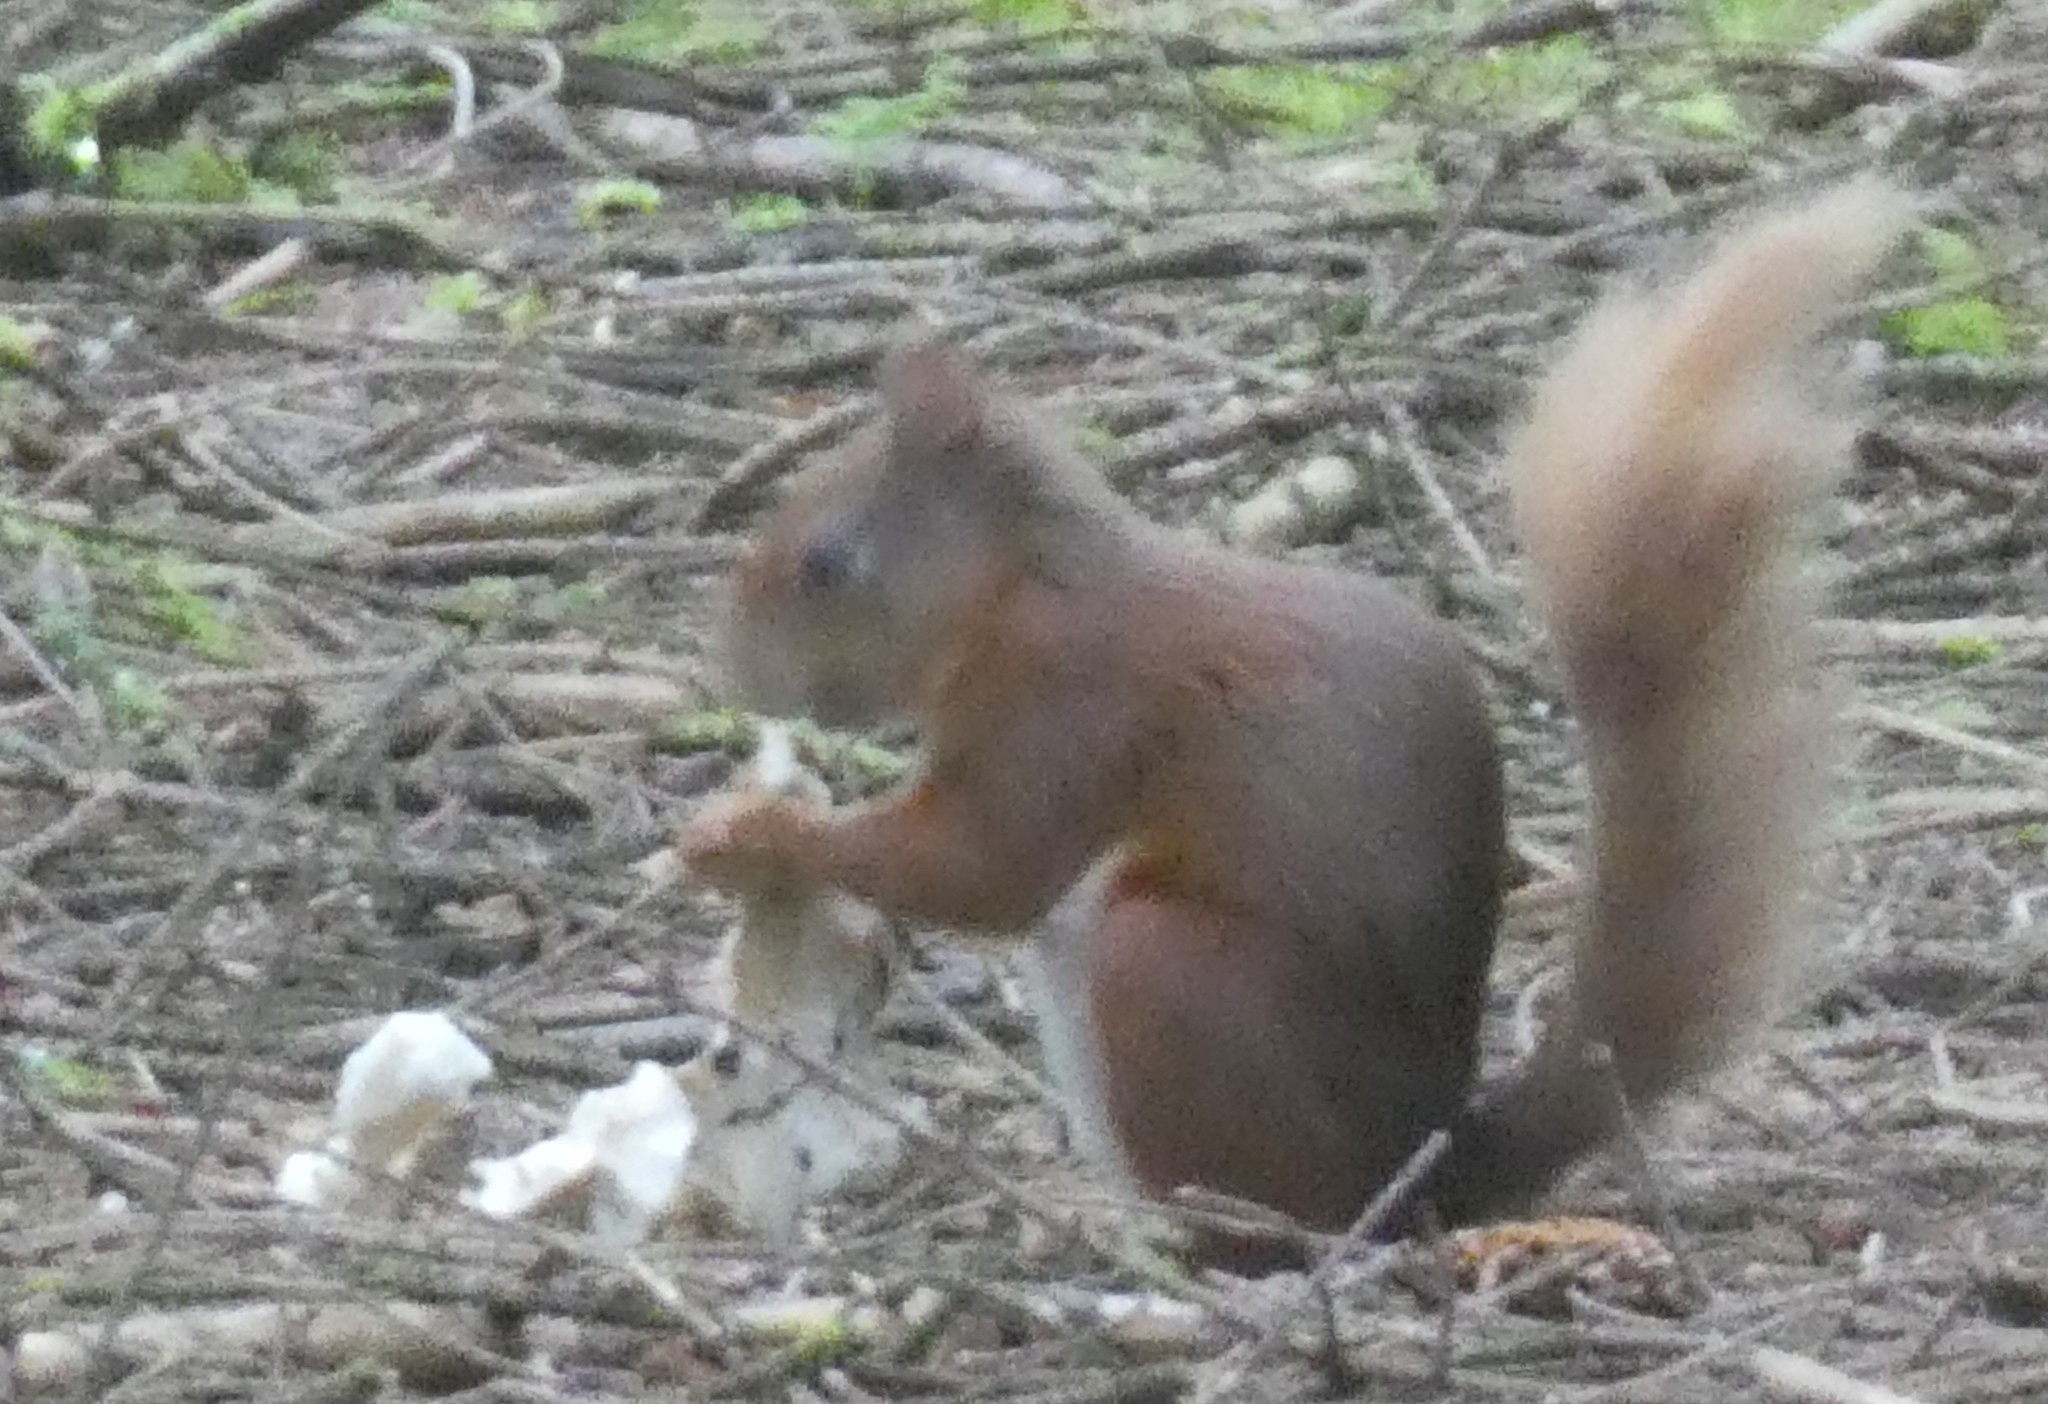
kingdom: Animalia
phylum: Chordata
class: Mammalia
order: Rodentia
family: Sciuridae
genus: Sciurus
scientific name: Sciurus vulgaris
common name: Eurasian red squirrel
